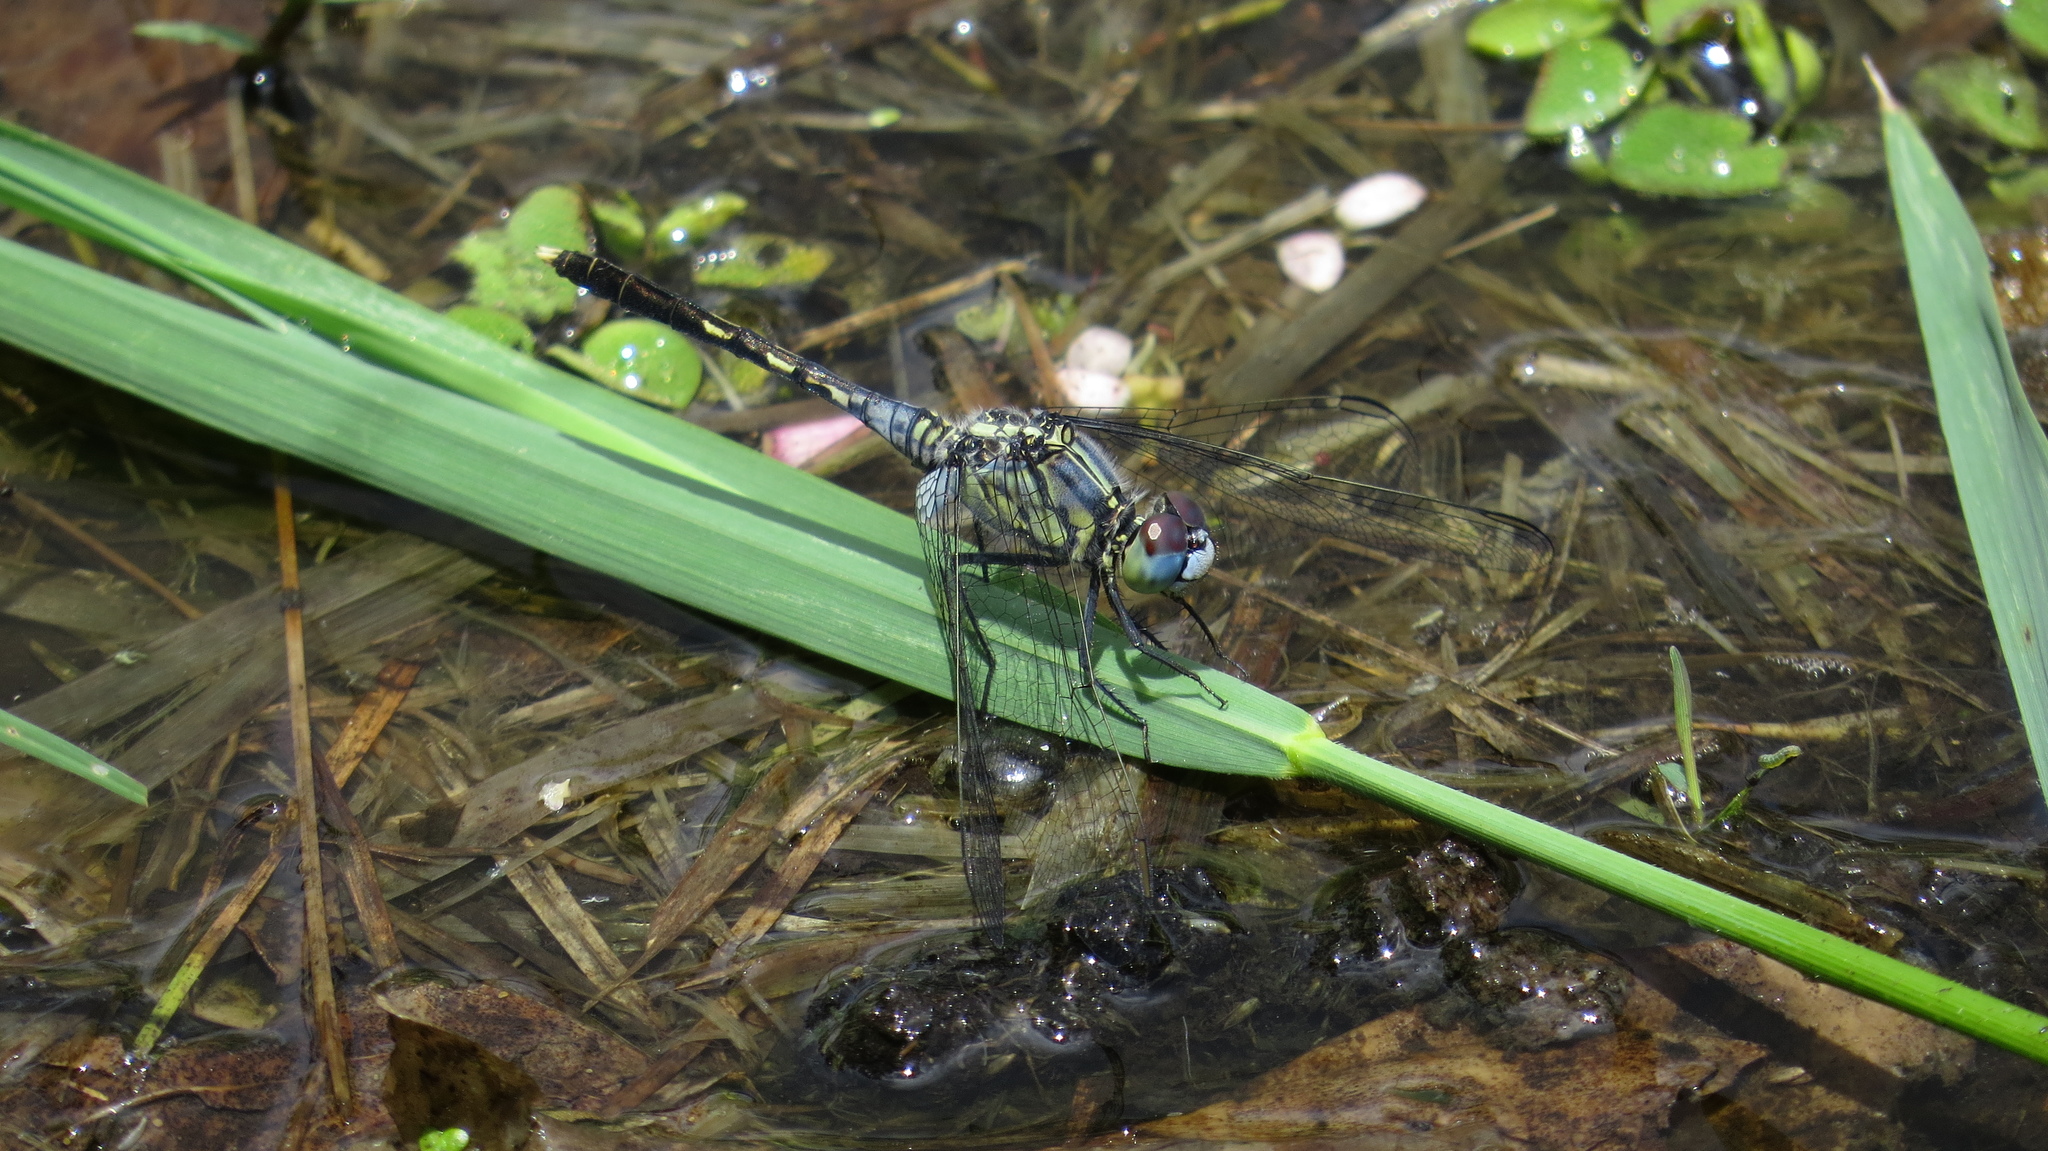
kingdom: Animalia
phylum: Arthropoda
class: Insecta
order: Odonata
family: Libellulidae
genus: Diplacodes
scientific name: Diplacodes trivialis
